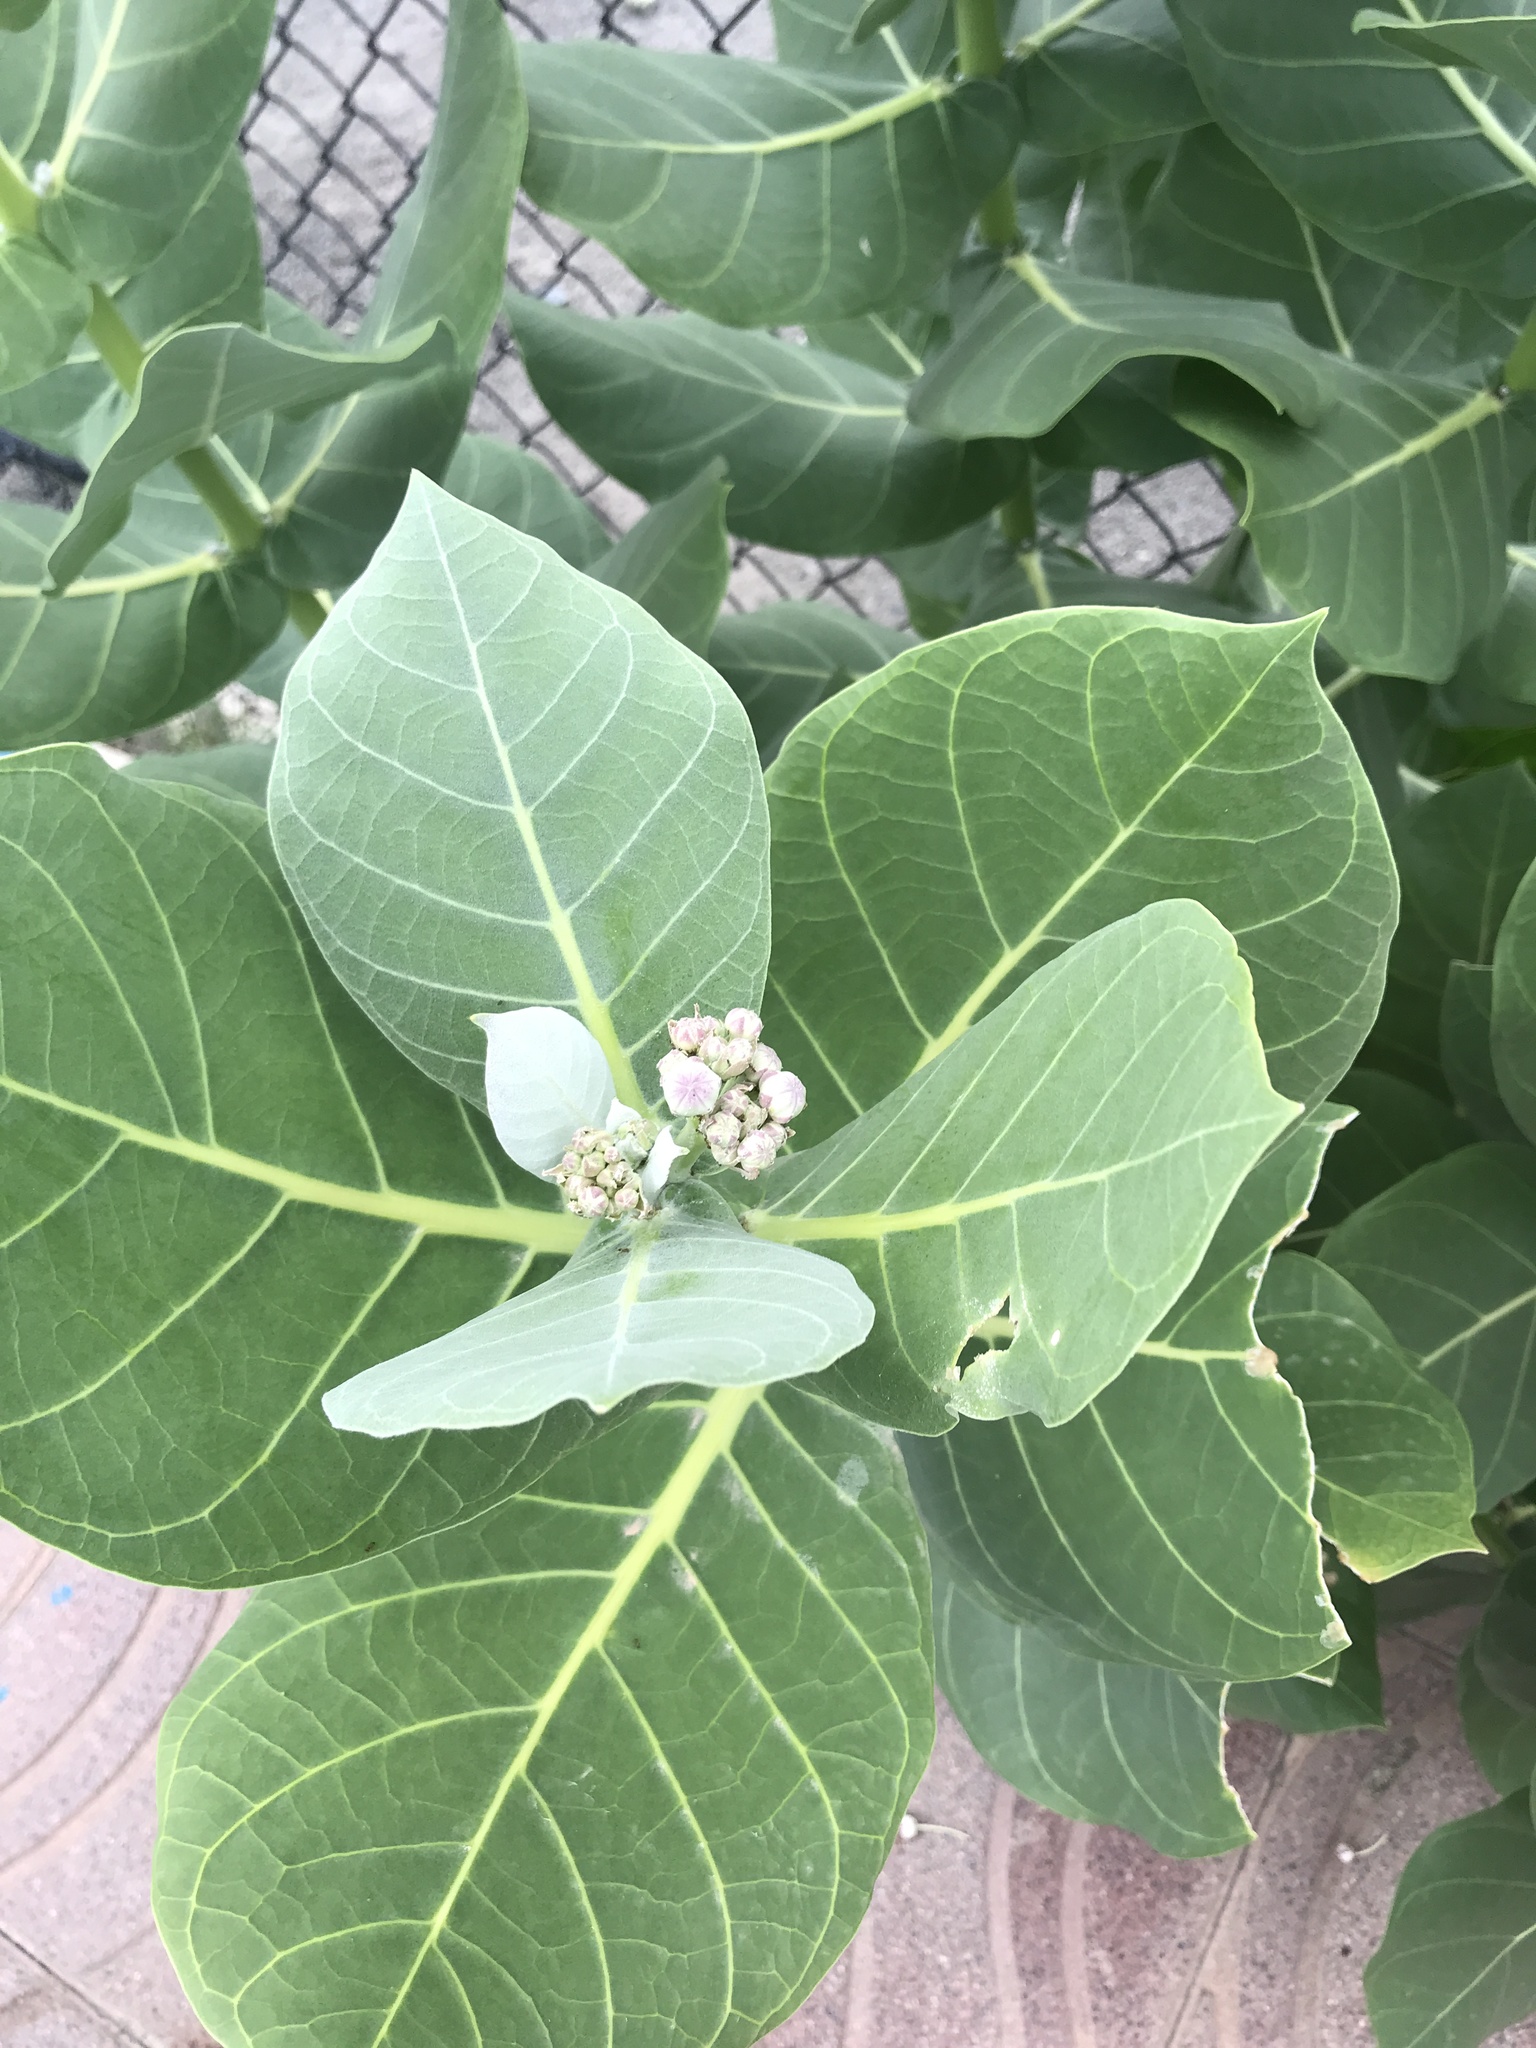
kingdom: Plantae
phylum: Tracheophyta
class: Magnoliopsida
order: Gentianales
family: Apocynaceae
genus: Calotropis
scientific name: Calotropis procera
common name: Roostertree
